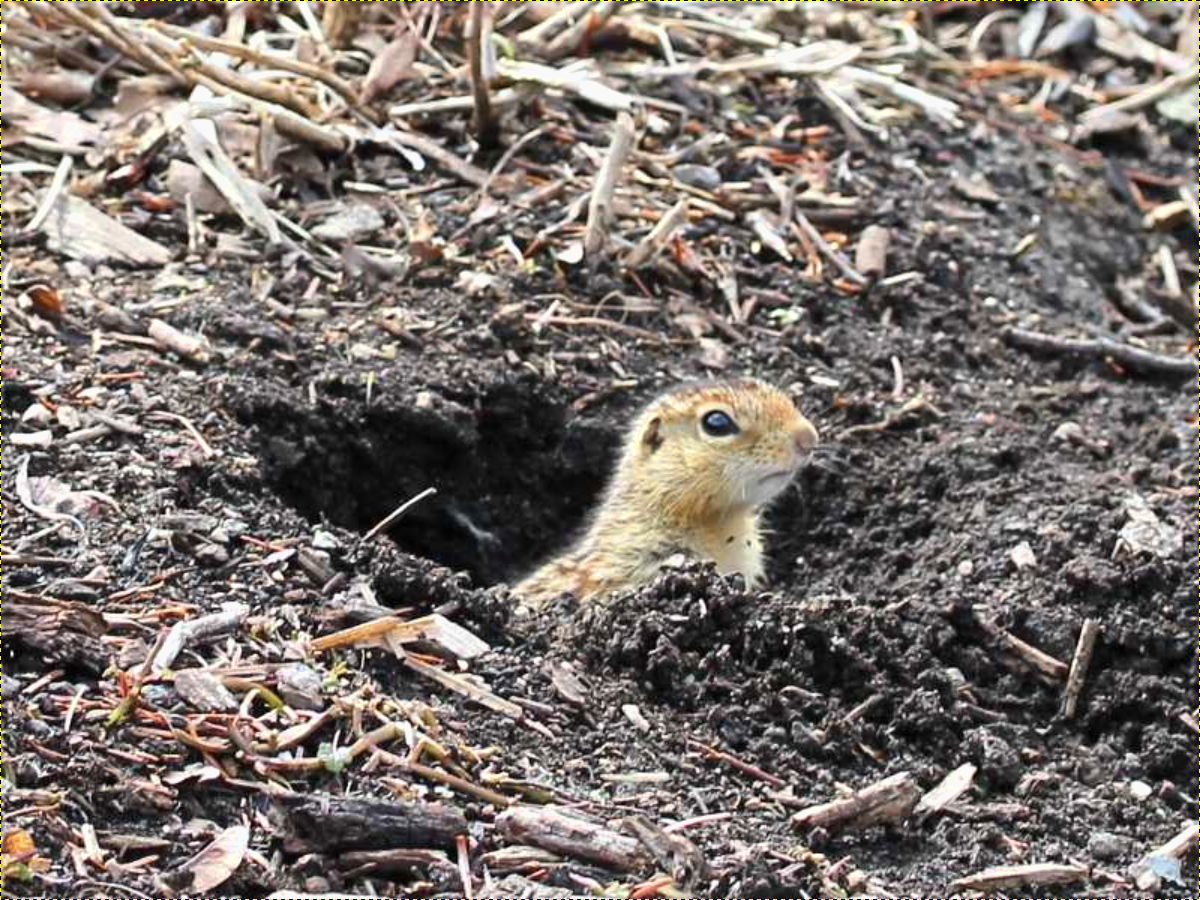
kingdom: Animalia
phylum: Chordata
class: Mammalia
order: Rodentia
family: Sciuridae
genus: Ictidomys
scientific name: Ictidomys tridecemlineatus
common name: Thirteen-lined ground squirrel
